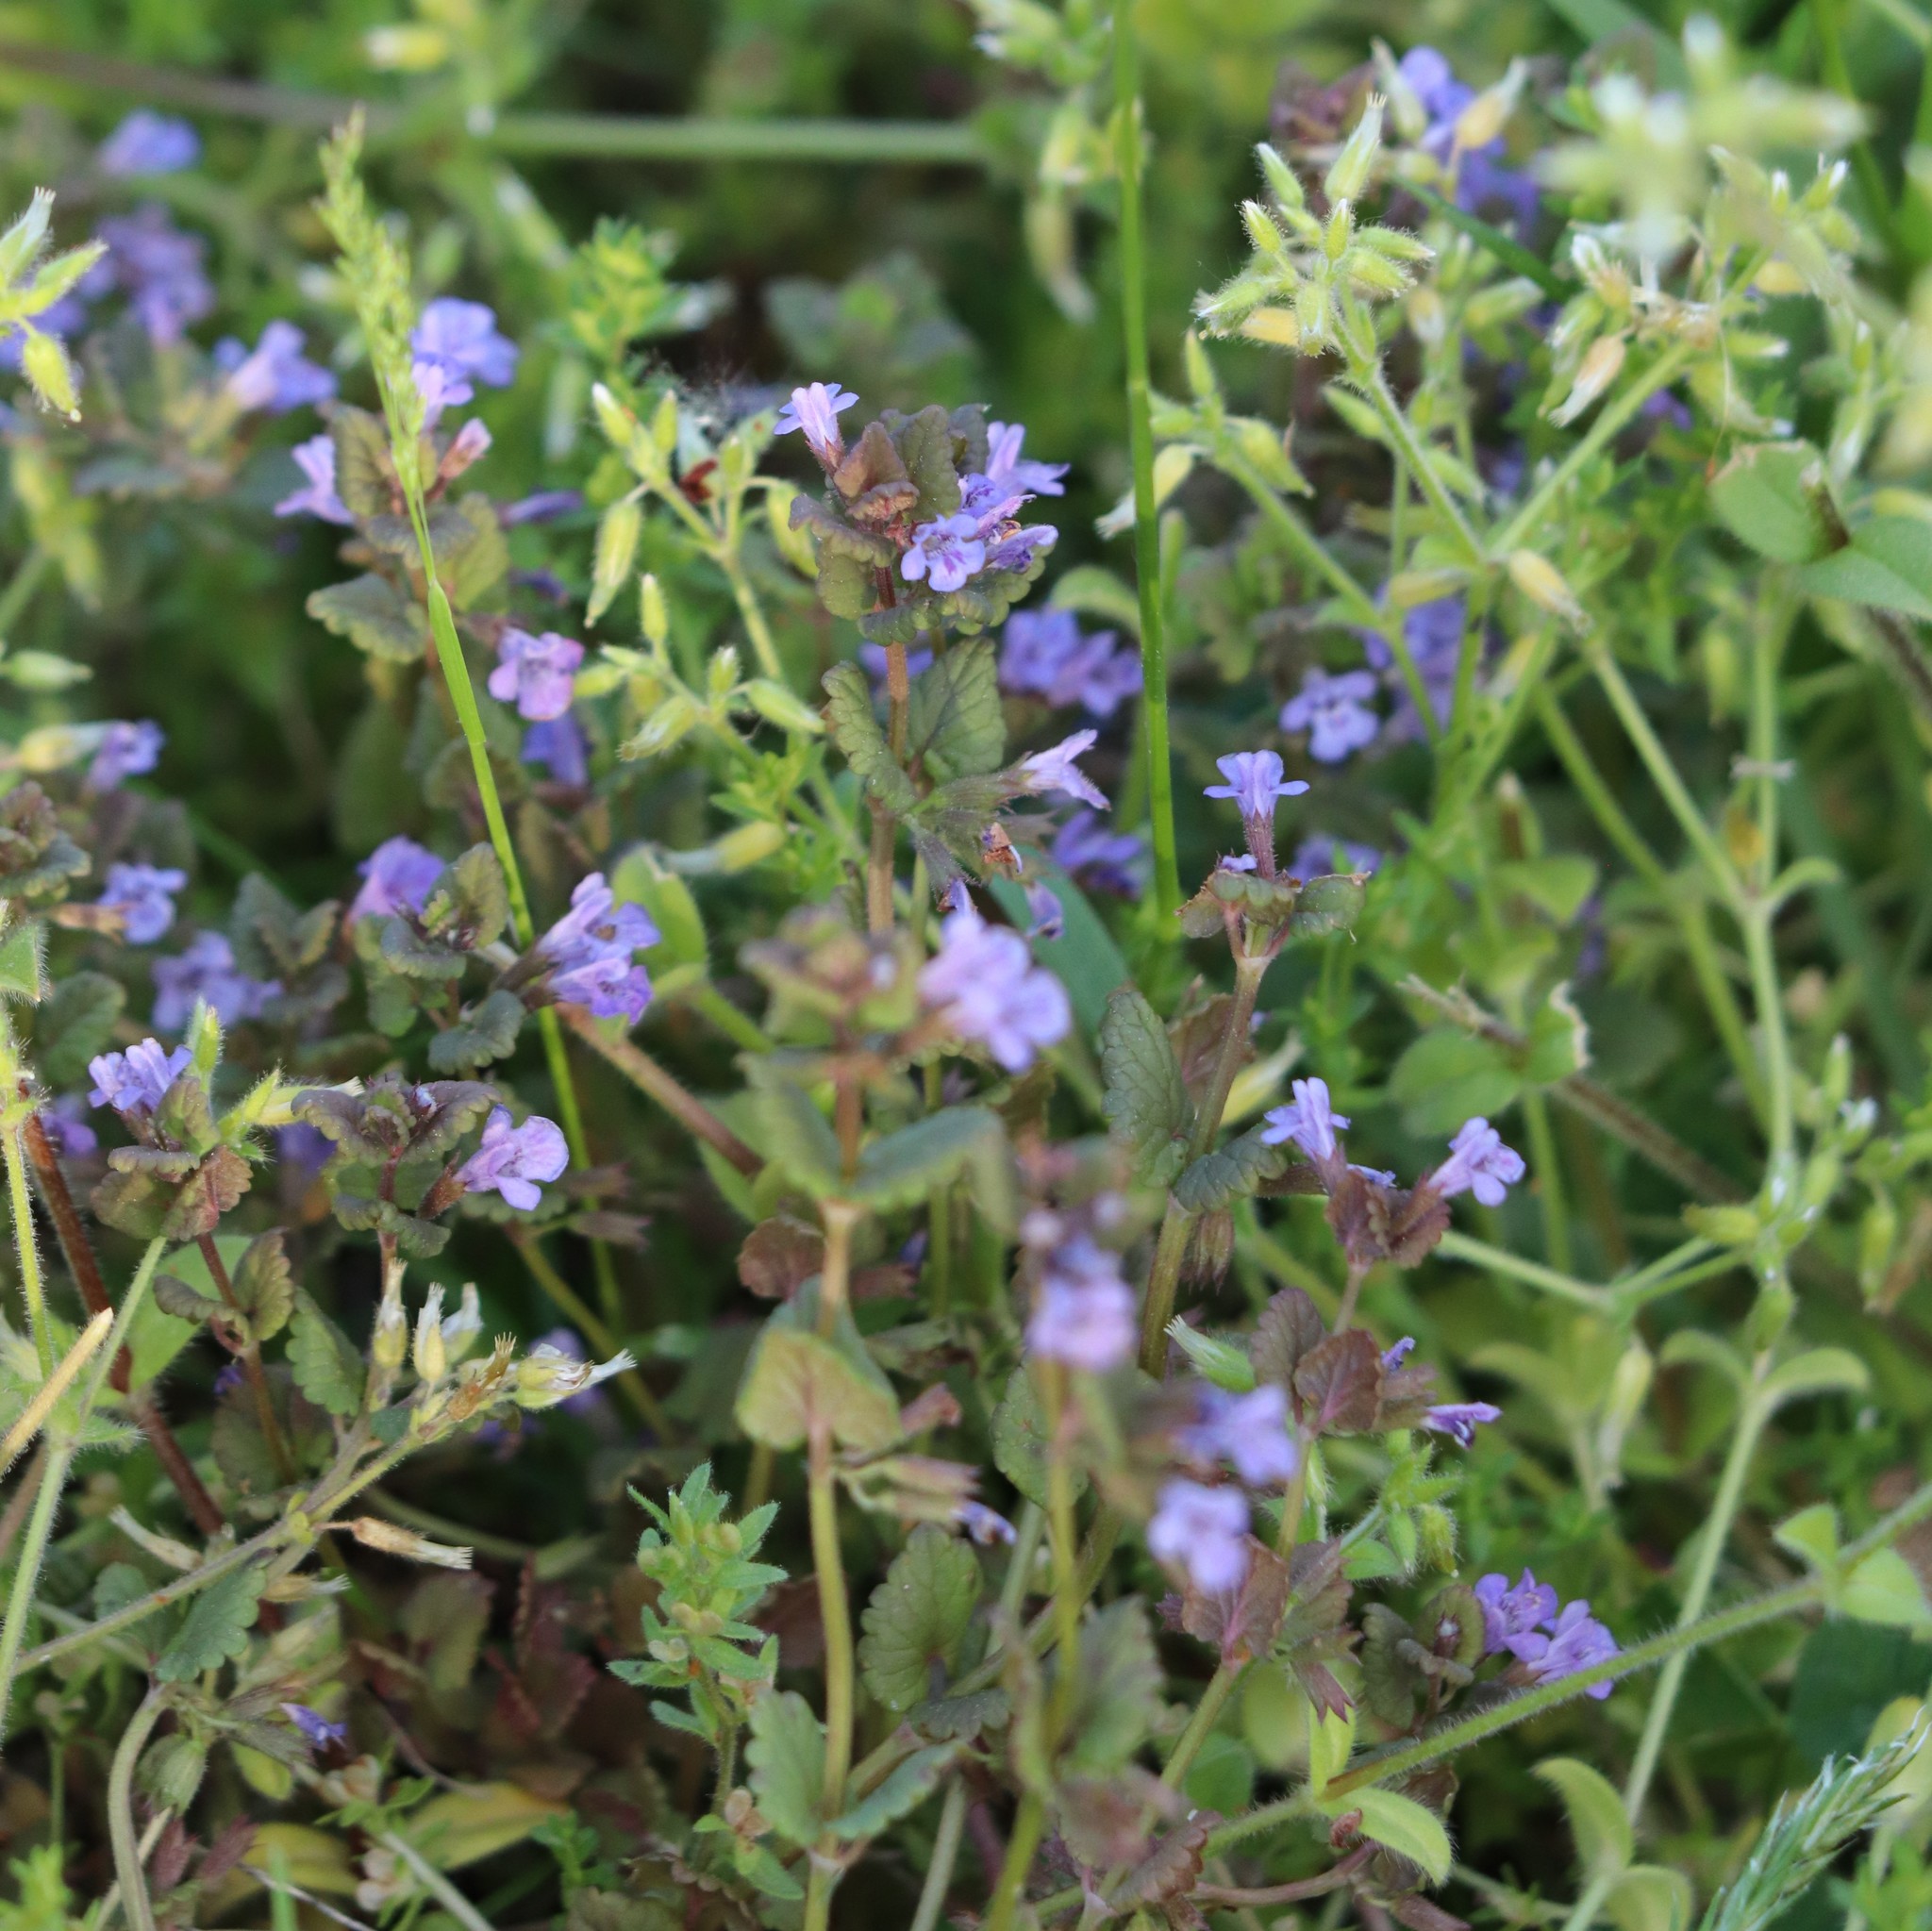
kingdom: Plantae
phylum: Tracheophyta
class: Magnoliopsida
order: Lamiales
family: Lamiaceae
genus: Glechoma
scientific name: Glechoma hederacea
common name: Ground ivy
